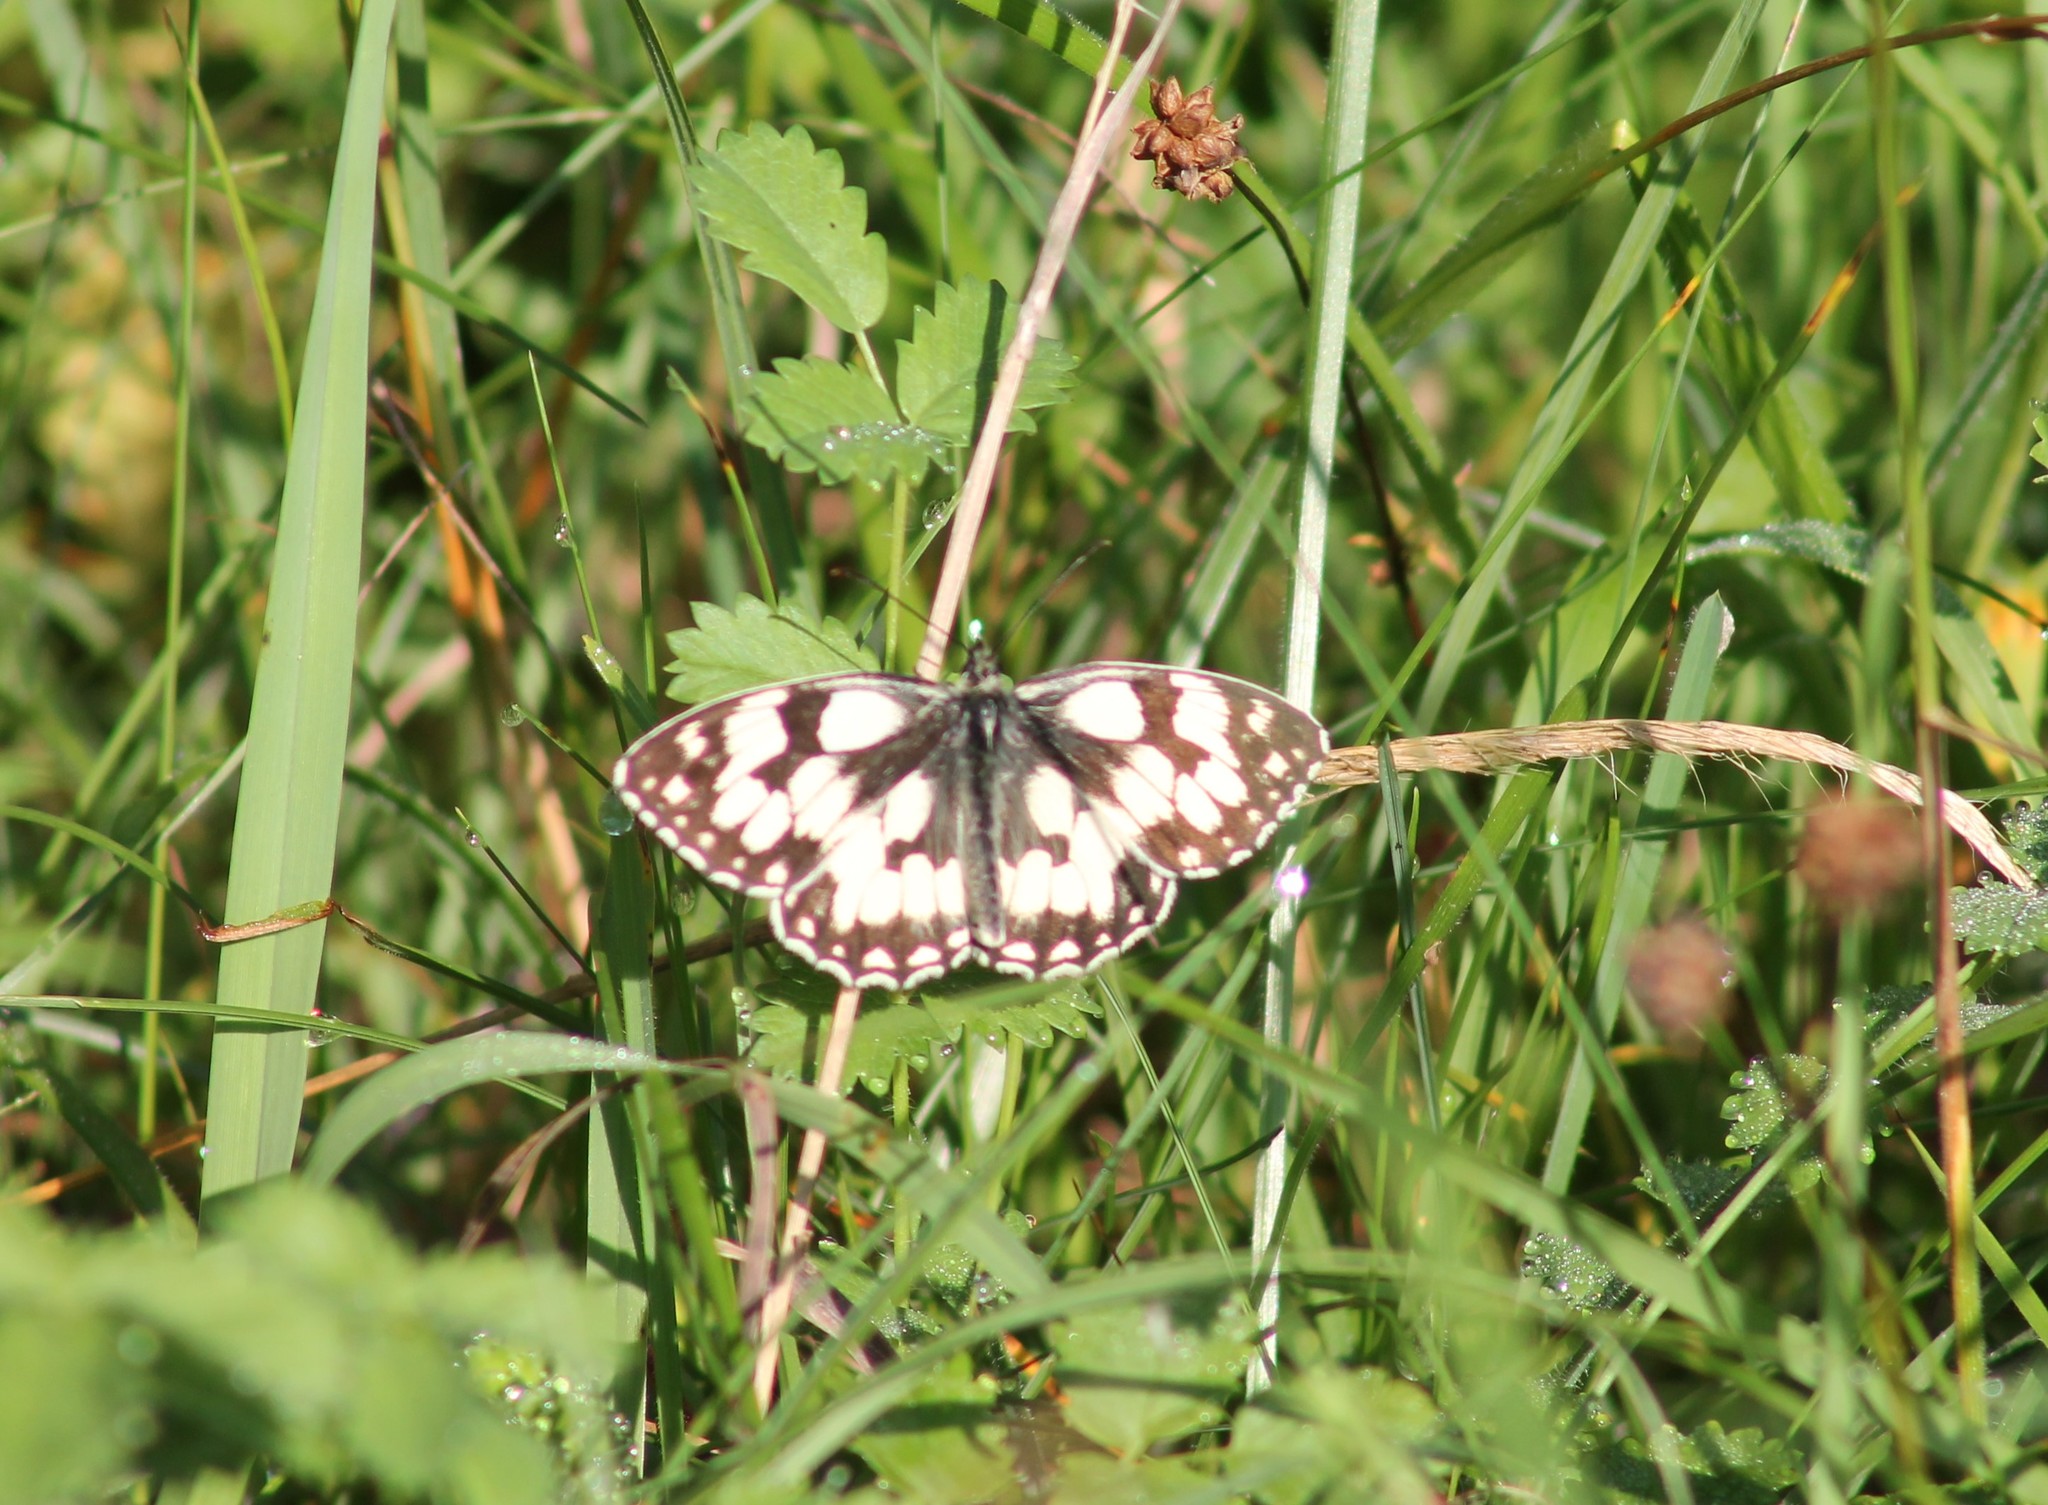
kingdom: Animalia
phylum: Arthropoda
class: Insecta
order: Lepidoptera
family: Nymphalidae
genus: Melanargia
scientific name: Melanargia galathea
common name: Marbled white
